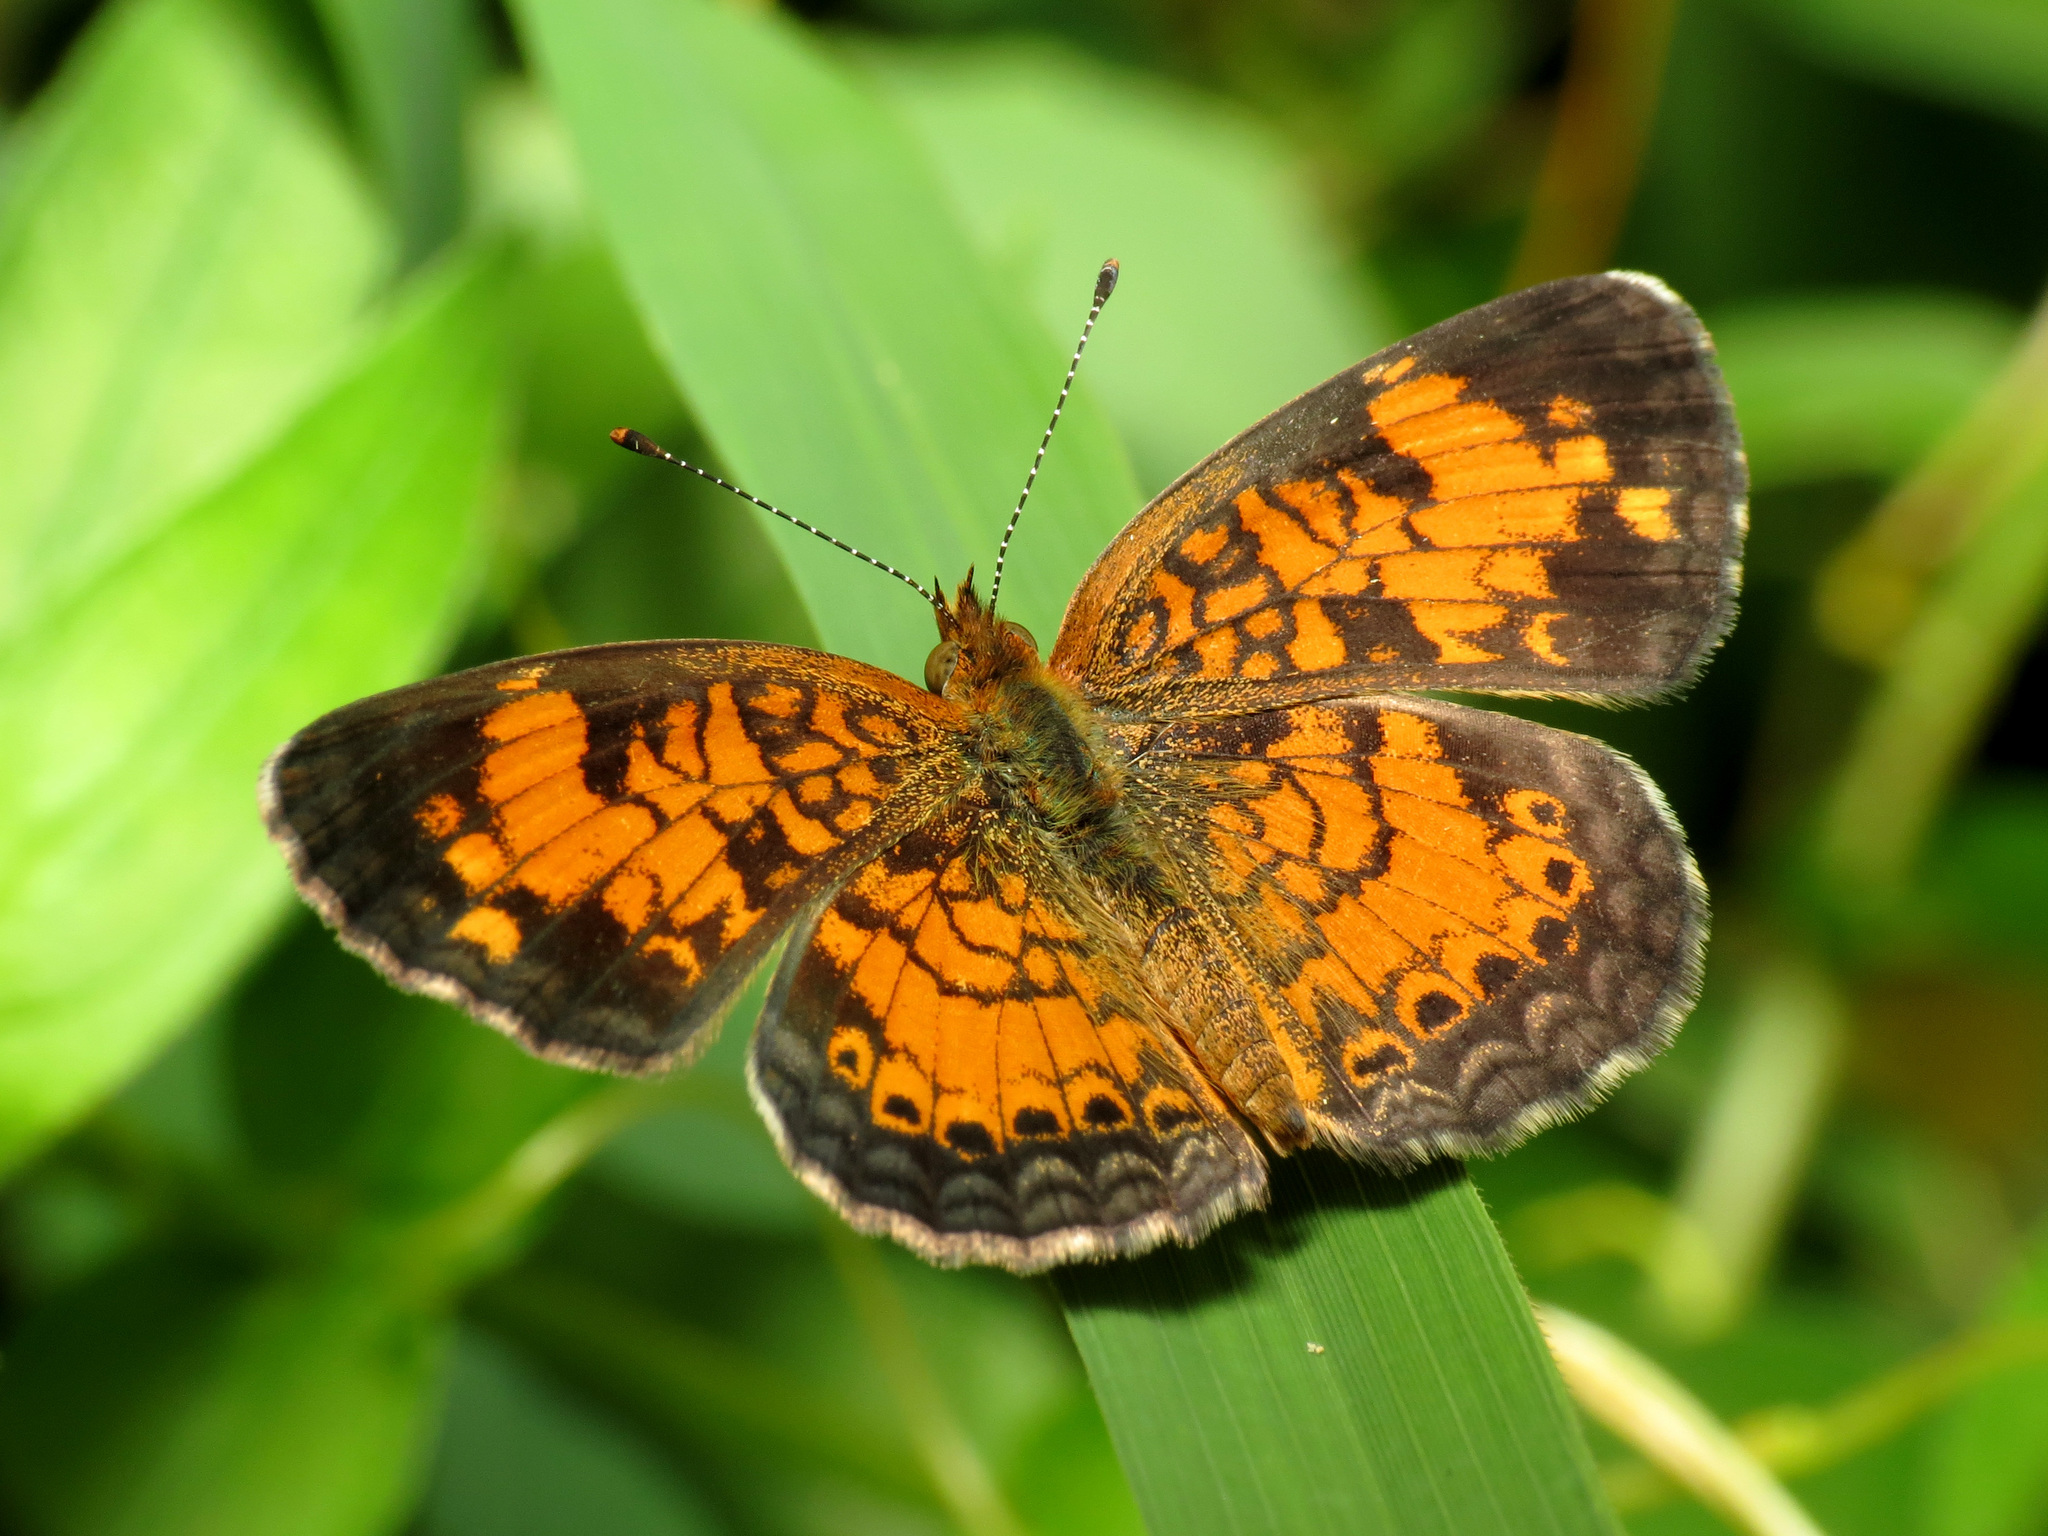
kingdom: Animalia
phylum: Arthropoda
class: Insecta
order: Lepidoptera
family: Nymphalidae
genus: Phyciodes
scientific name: Phyciodes tharos
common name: Pearl crescent
